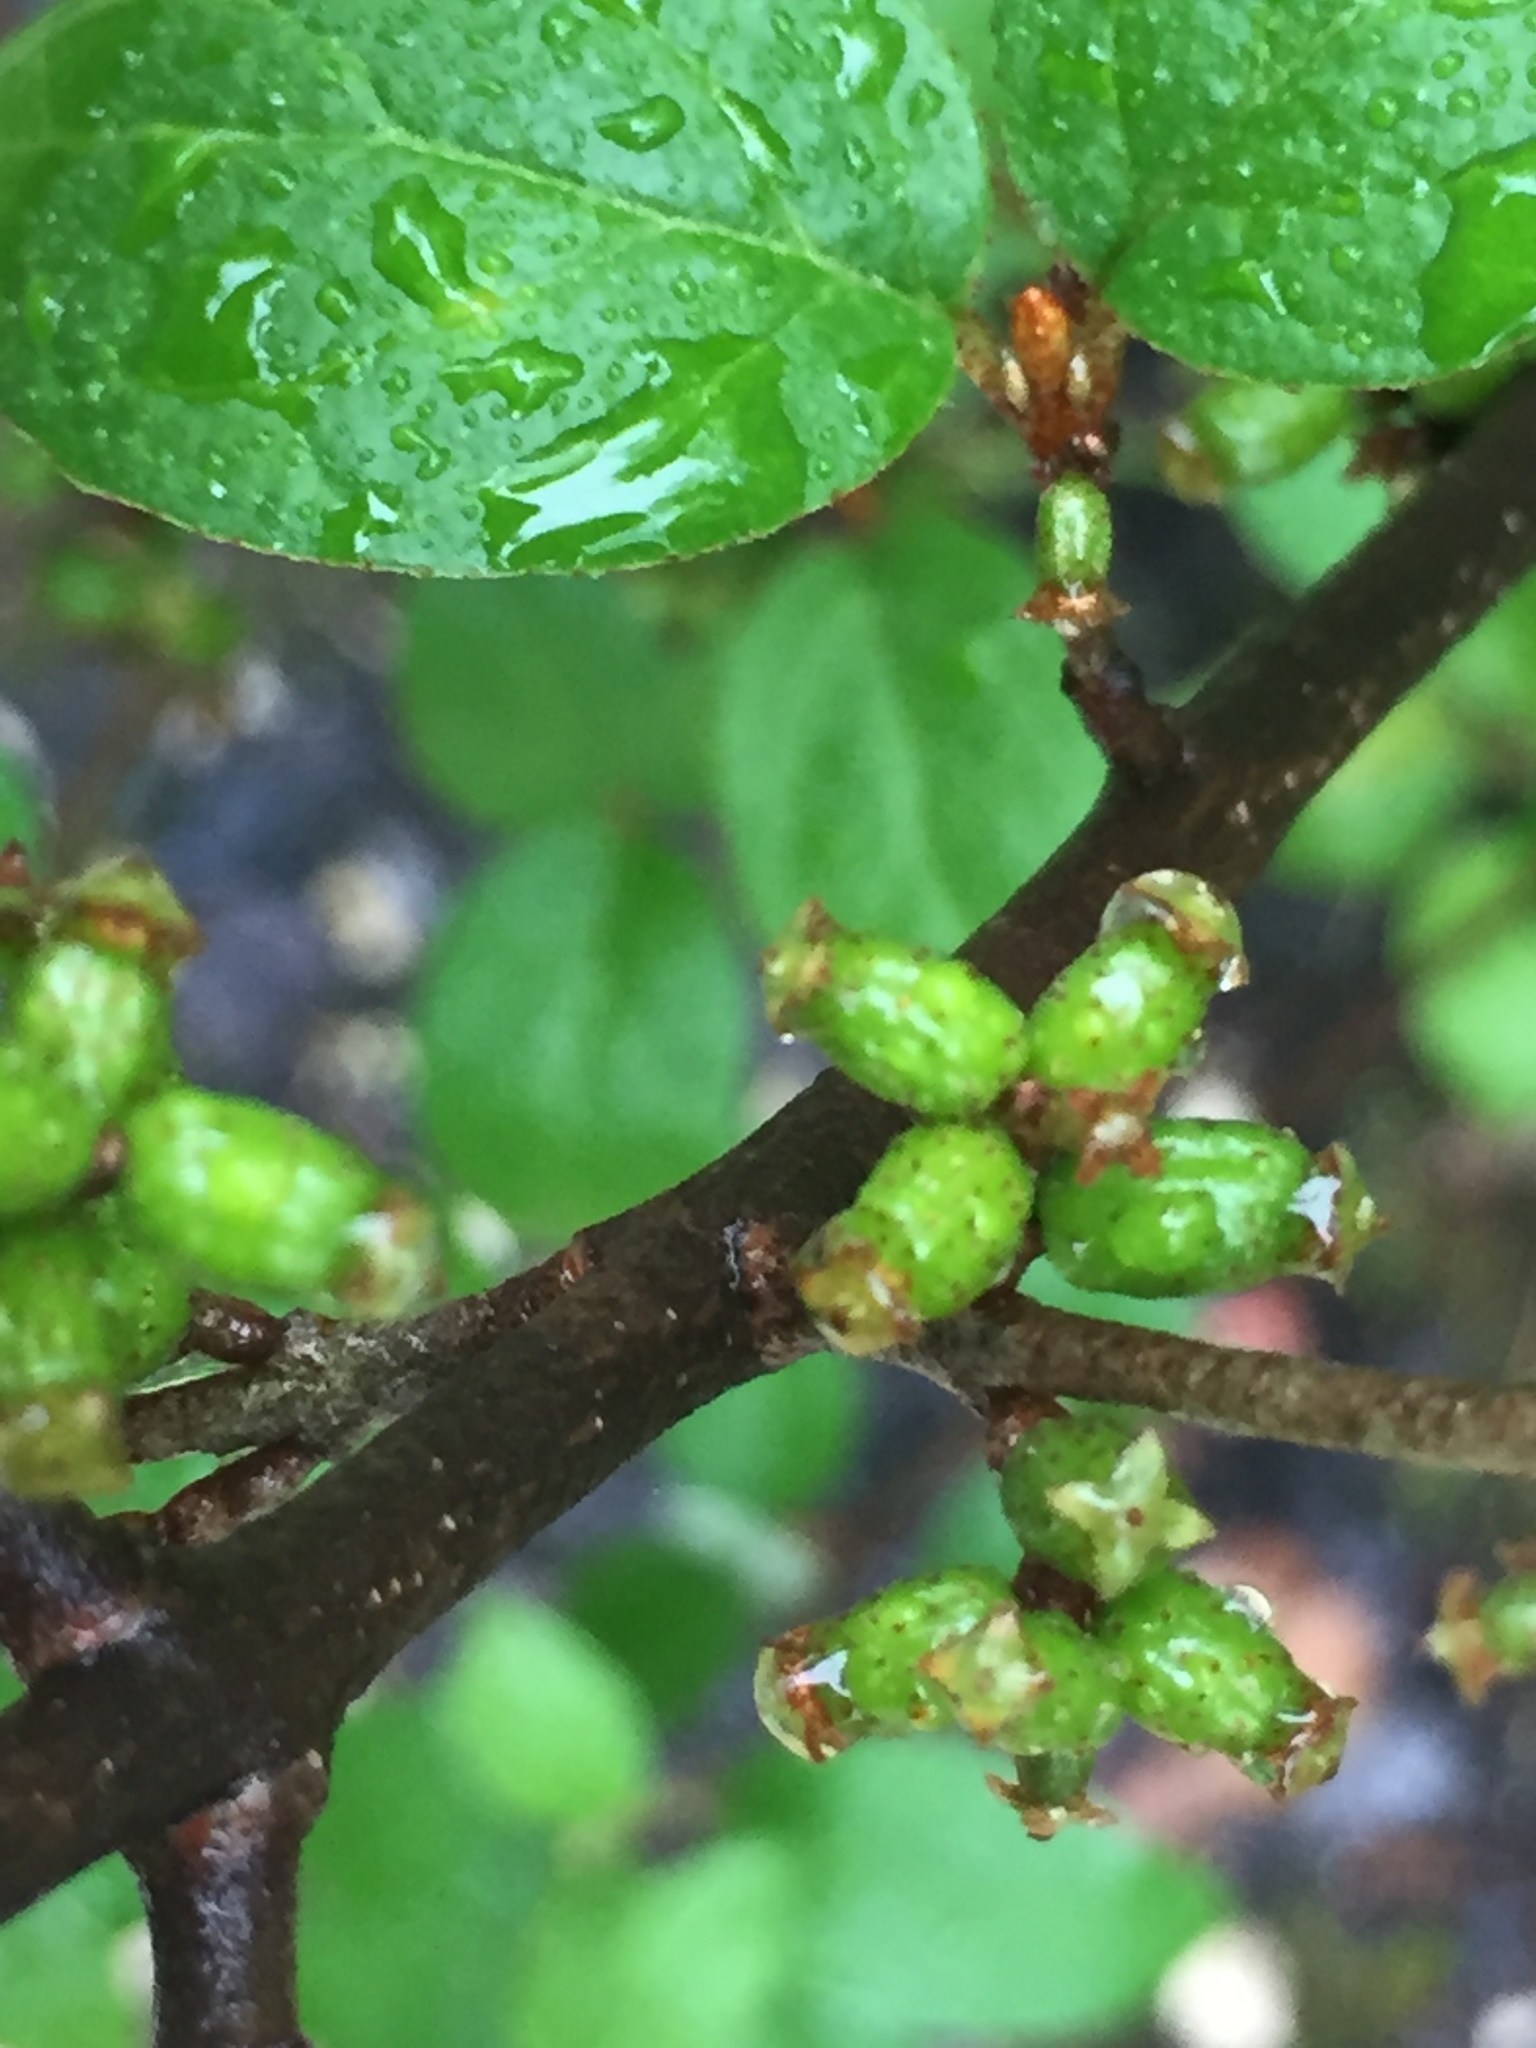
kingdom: Plantae
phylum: Tracheophyta
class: Magnoliopsida
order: Rosales
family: Elaeagnaceae
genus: Shepherdia
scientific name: Shepherdia canadensis
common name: Soapberry
